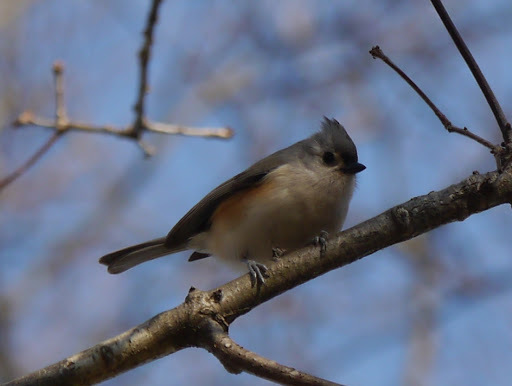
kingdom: Animalia
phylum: Chordata
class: Aves
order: Passeriformes
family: Paridae
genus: Baeolophus
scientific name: Baeolophus bicolor
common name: Tufted titmouse
